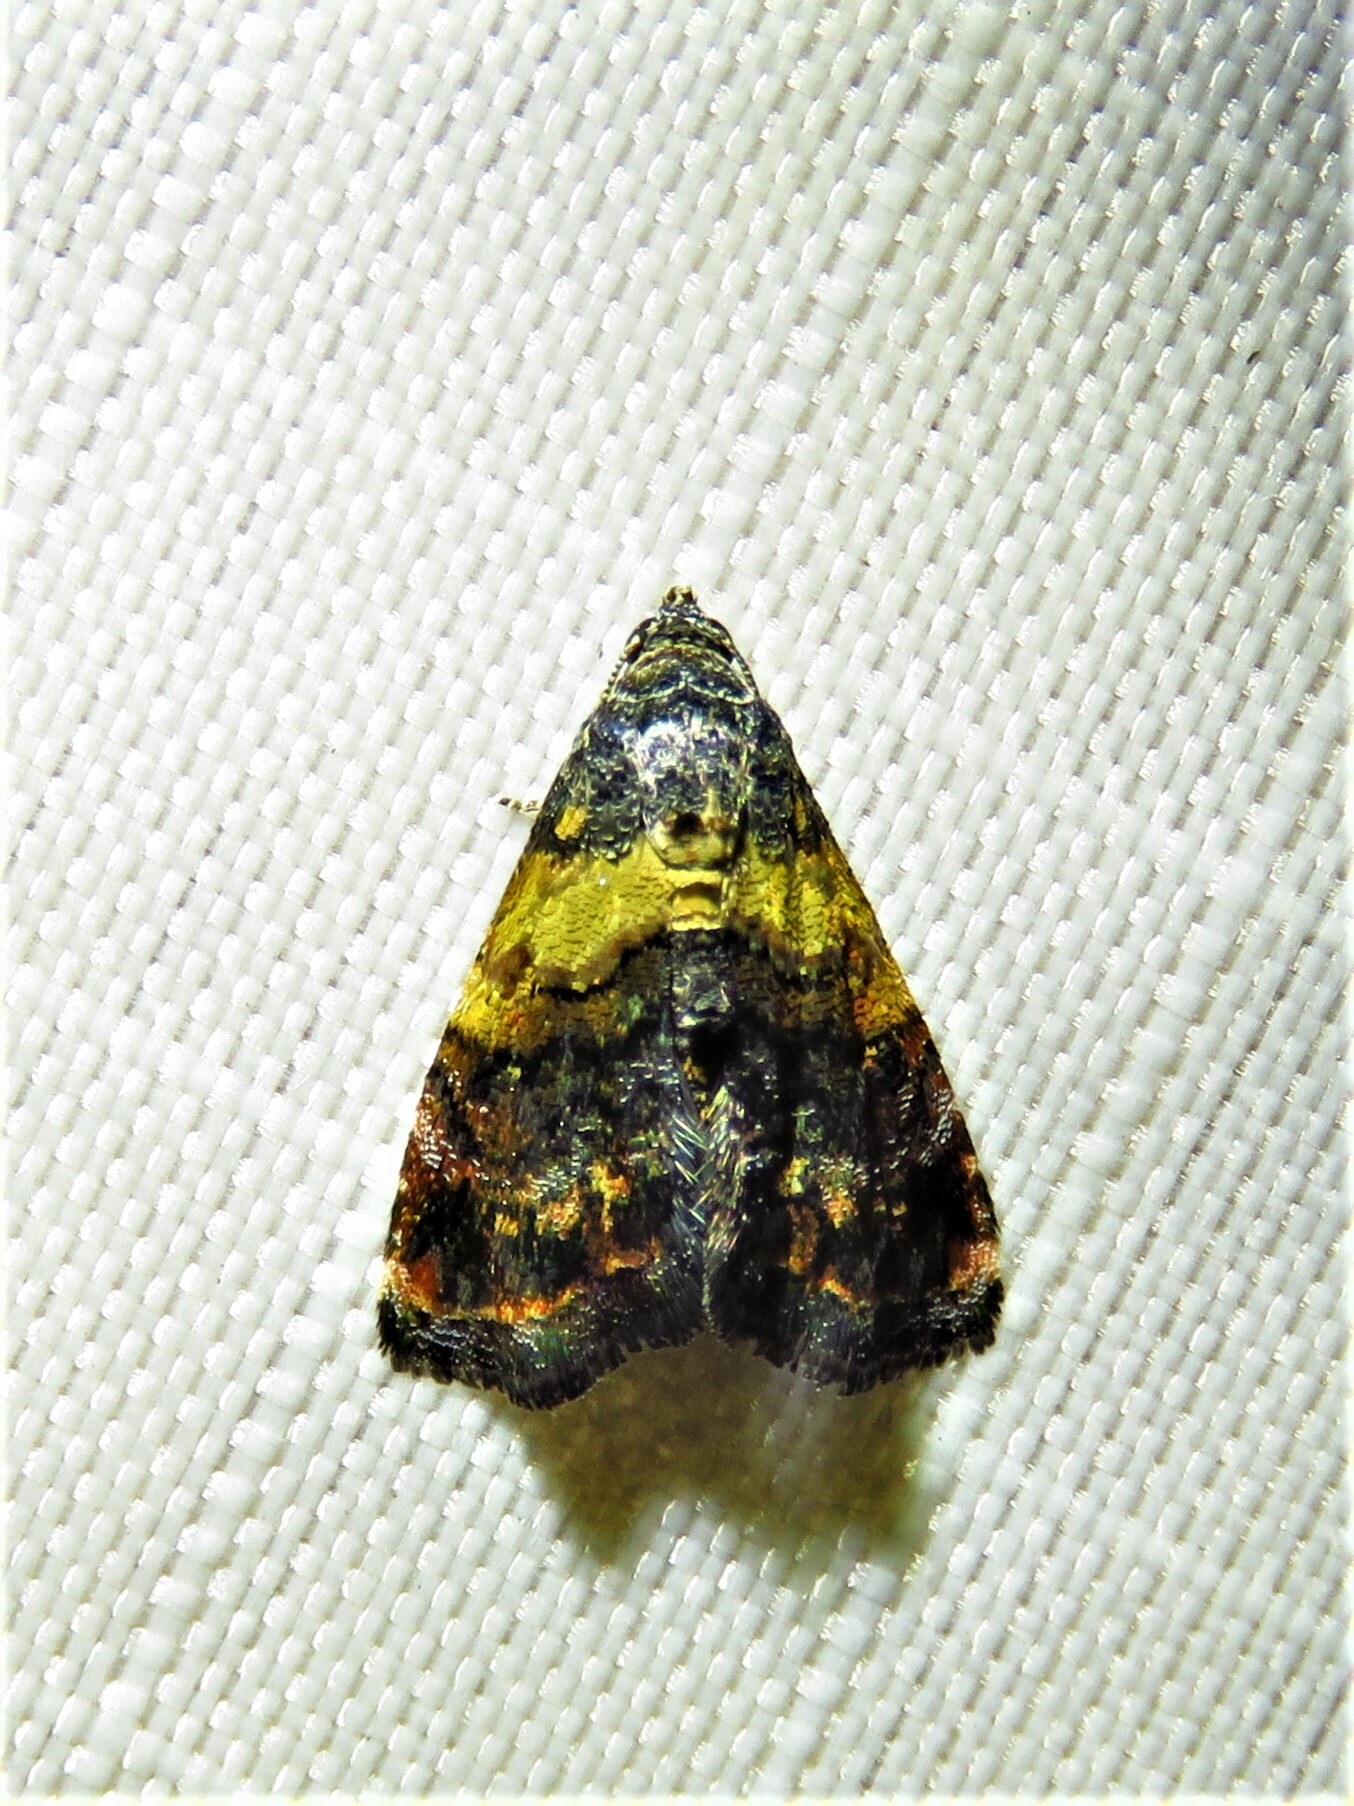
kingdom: Animalia
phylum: Arthropoda
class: Insecta
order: Lepidoptera
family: Noctuidae
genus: Tripudia
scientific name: Tripudia flavofasciata
